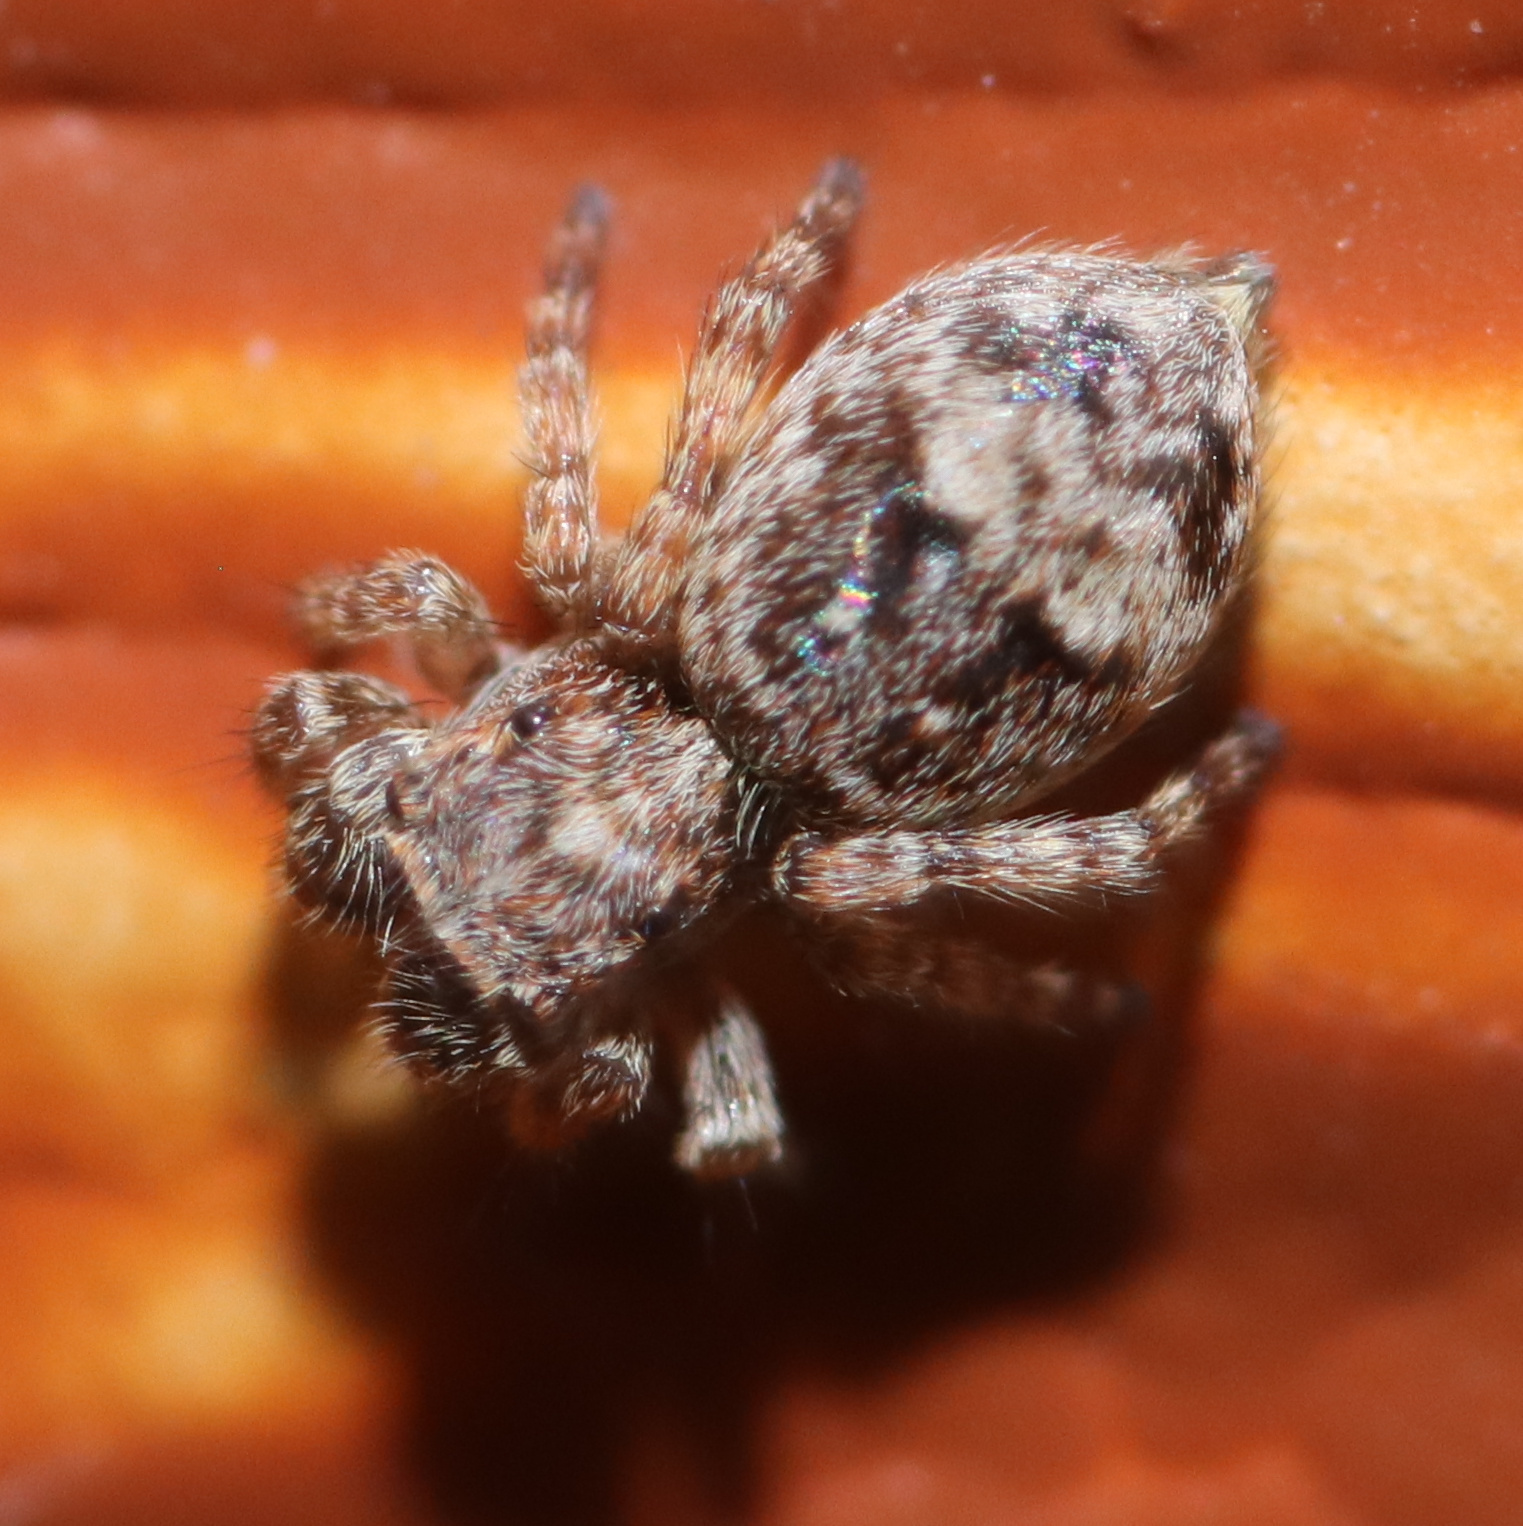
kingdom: Animalia
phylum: Arthropoda
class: Arachnida
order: Araneae
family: Salticidae
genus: Attulus
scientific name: Attulus fasciger
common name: Asiatic wall jumping spider
